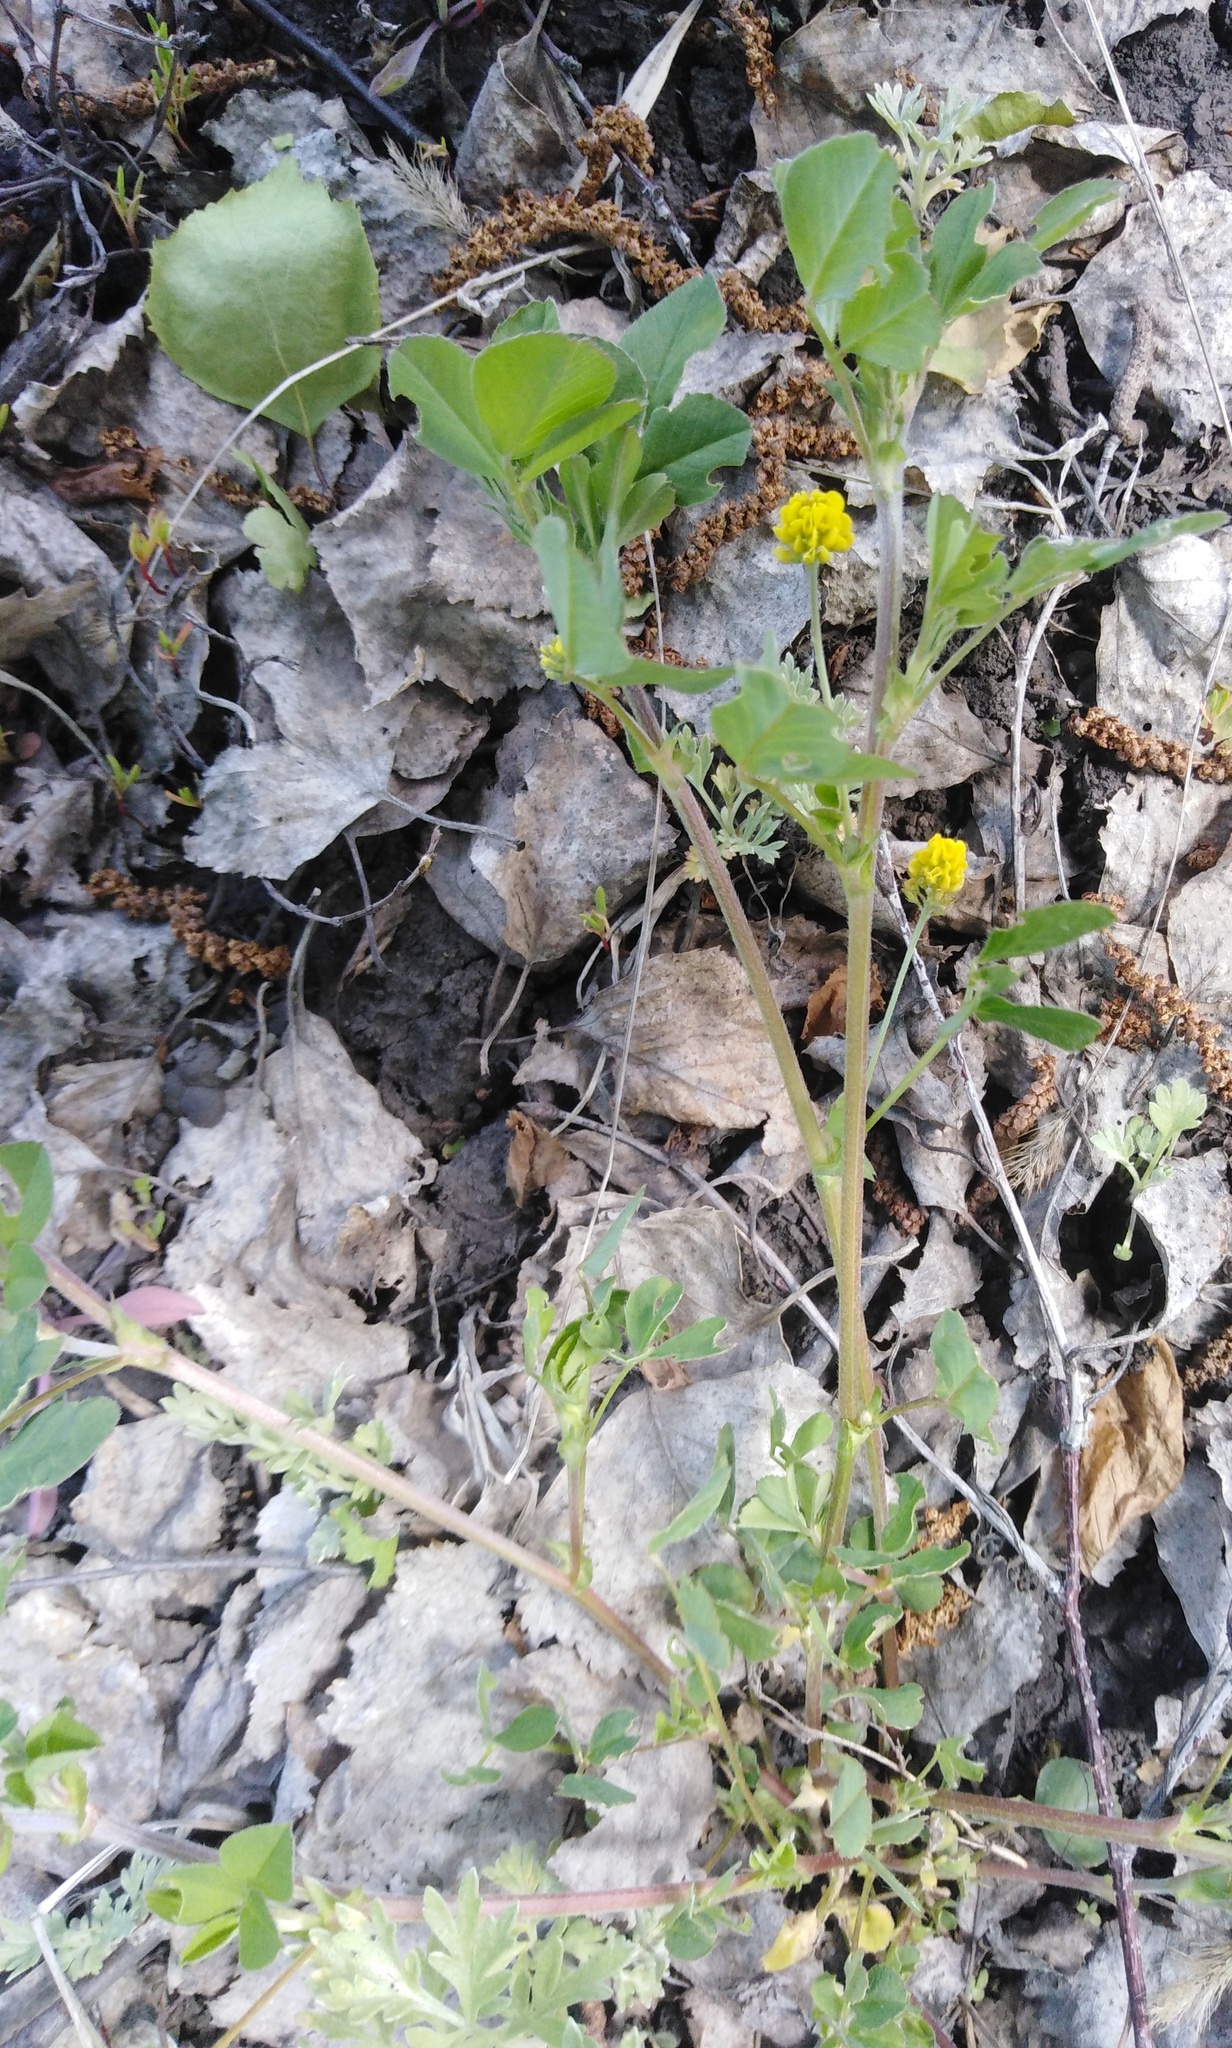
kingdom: Plantae
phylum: Tracheophyta
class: Magnoliopsida
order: Fabales
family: Fabaceae
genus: Medicago
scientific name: Medicago lupulina
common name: Black medick
